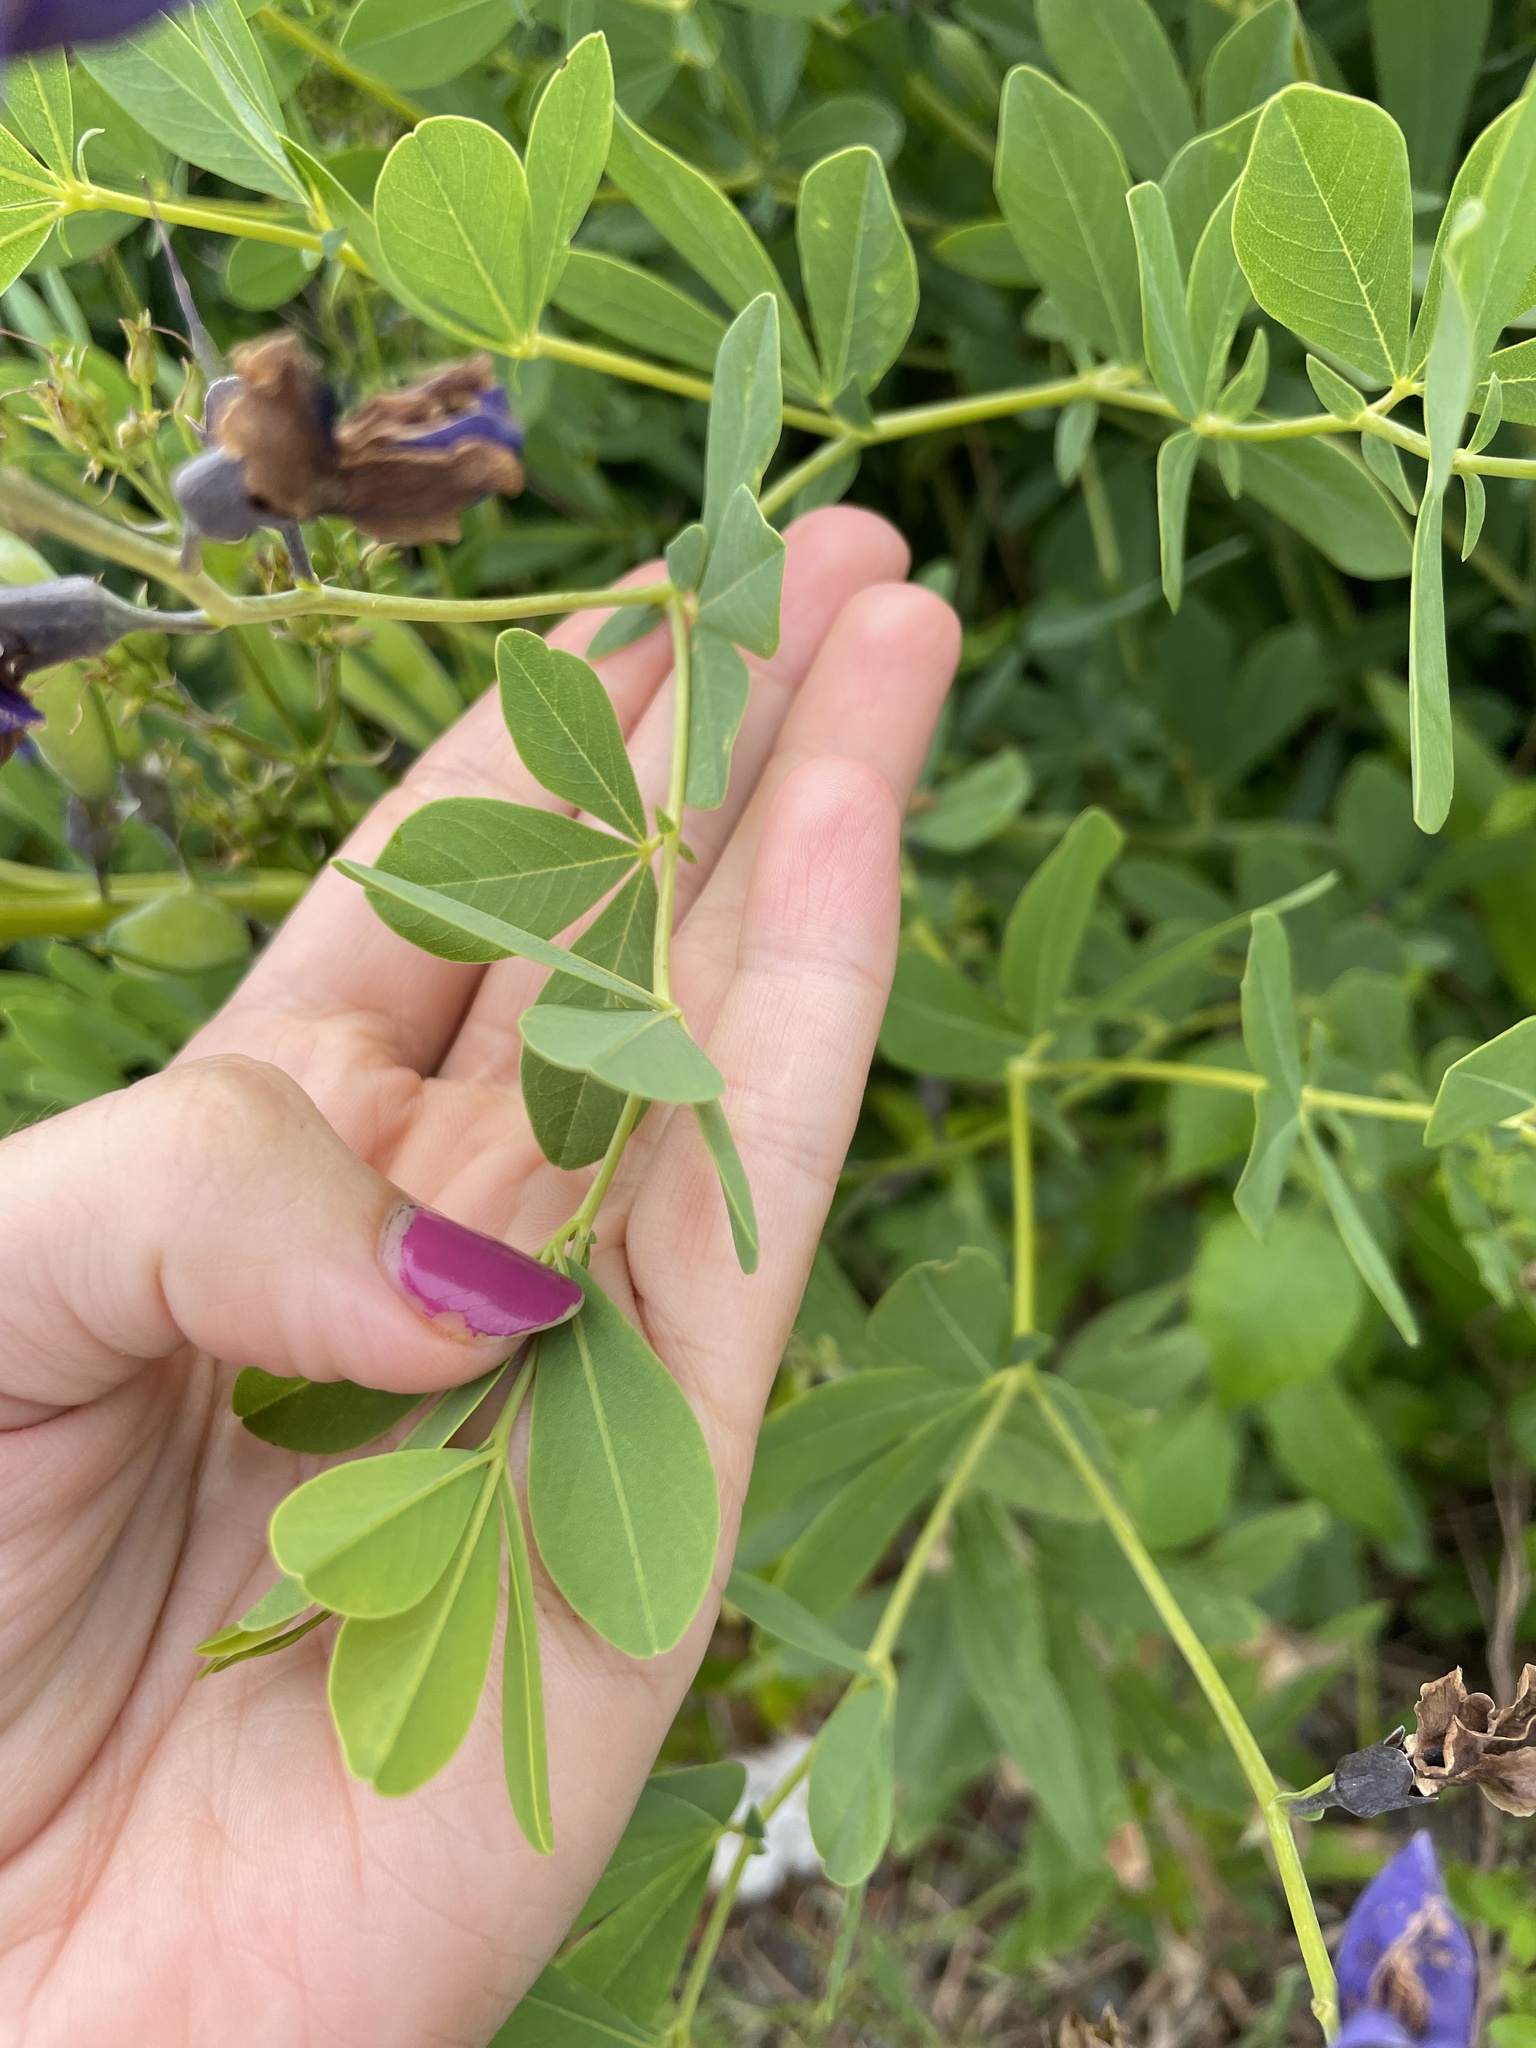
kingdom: Plantae
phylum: Tracheophyta
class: Magnoliopsida
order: Fabales
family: Fabaceae
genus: Baptisia
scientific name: Baptisia australis
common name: Blue false indigo
